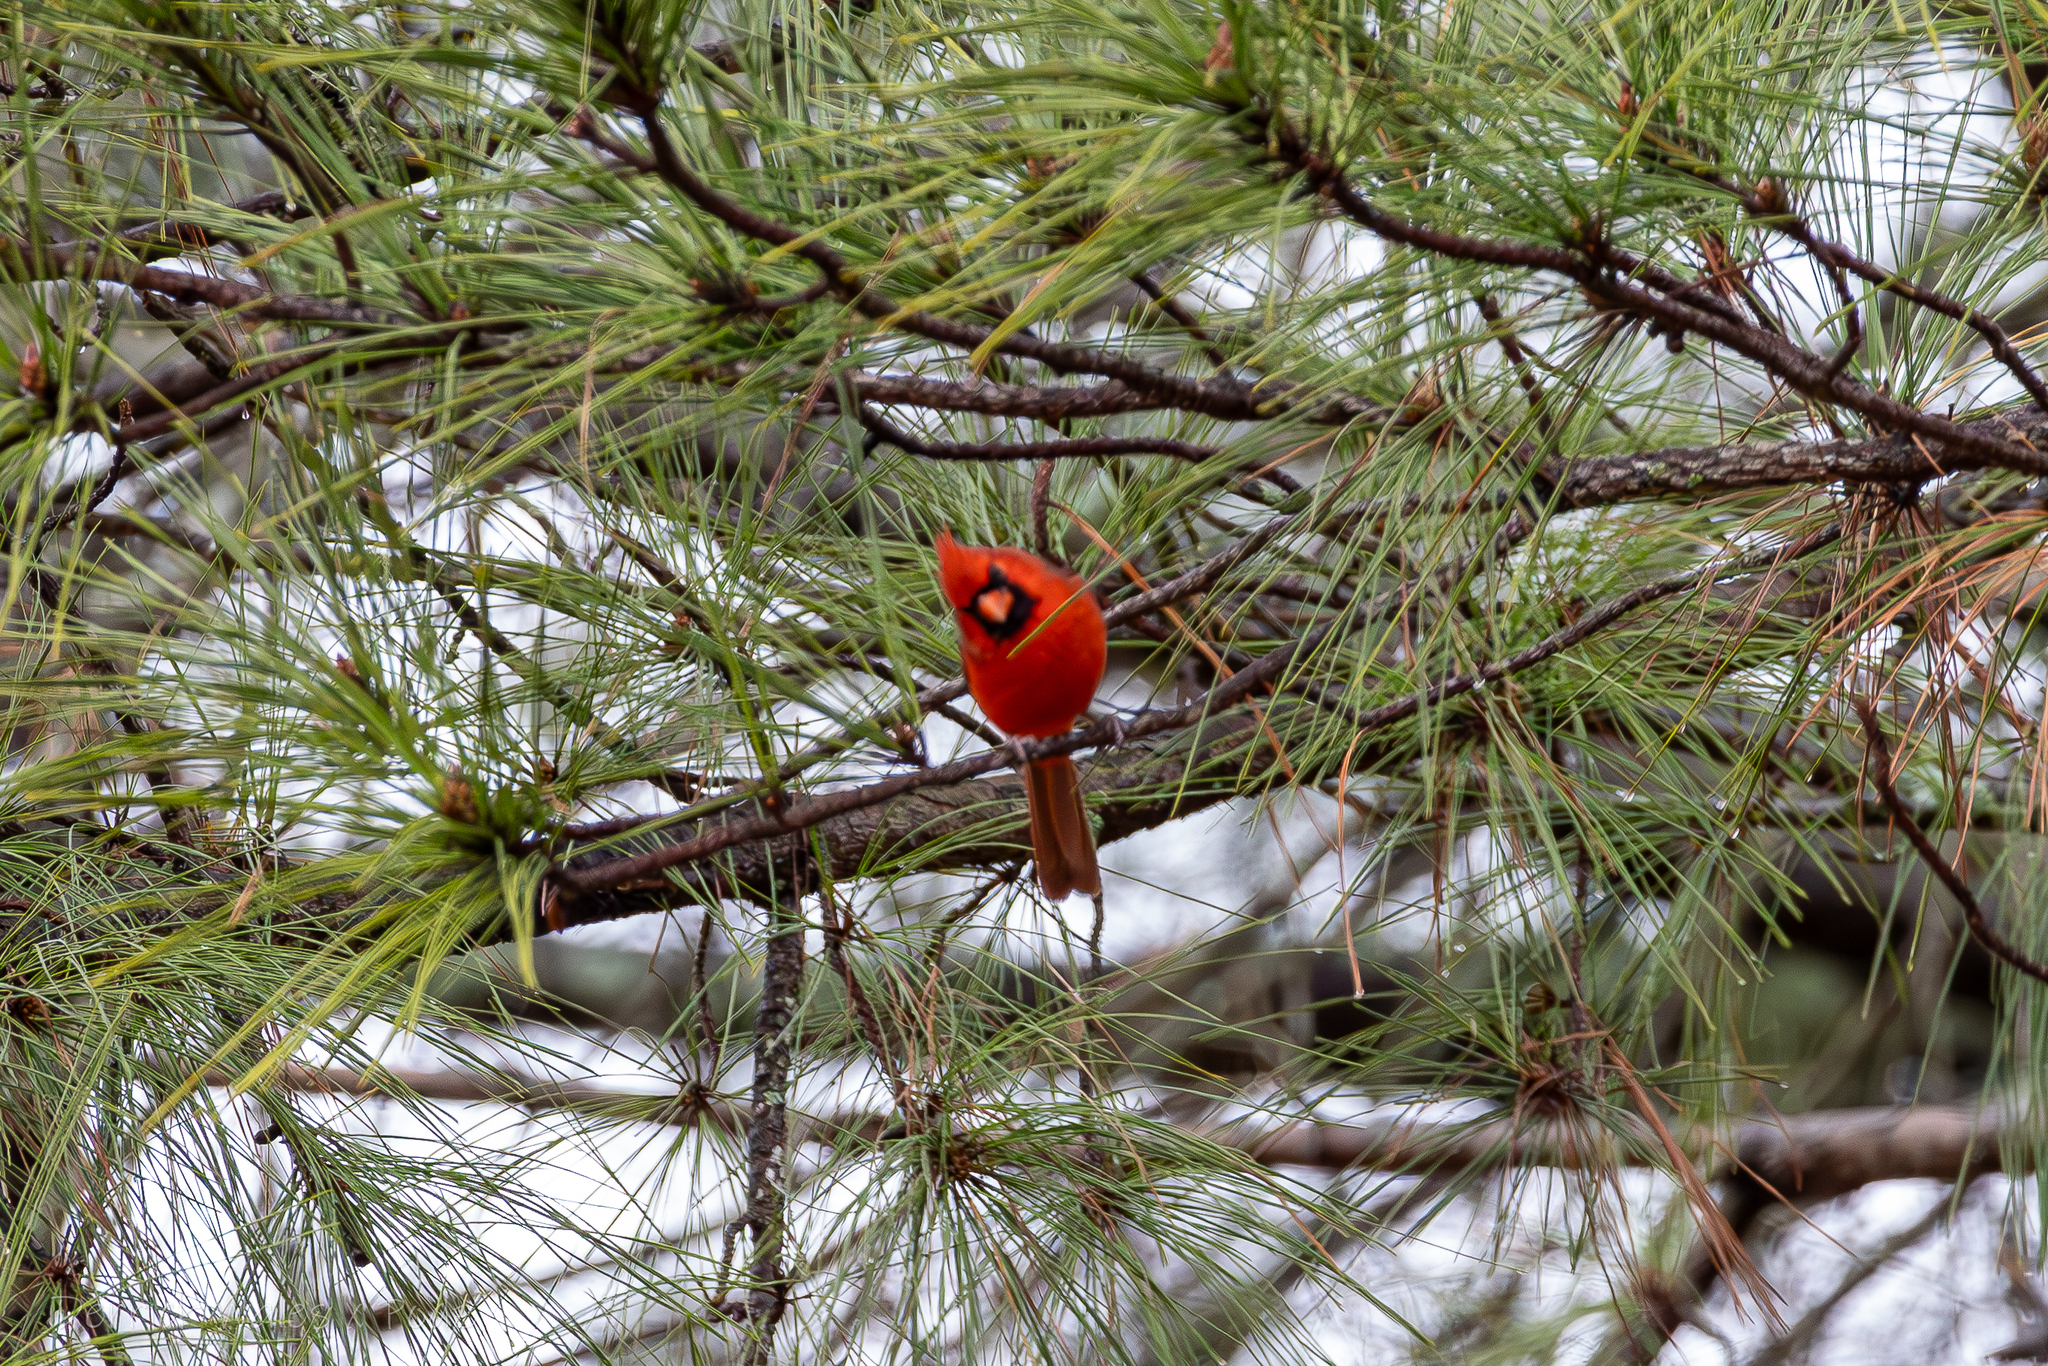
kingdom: Plantae
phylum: Tracheophyta
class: Pinopsida
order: Pinales
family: Pinaceae
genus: Pinus
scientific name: Pinus taeda
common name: Loblolly pine
